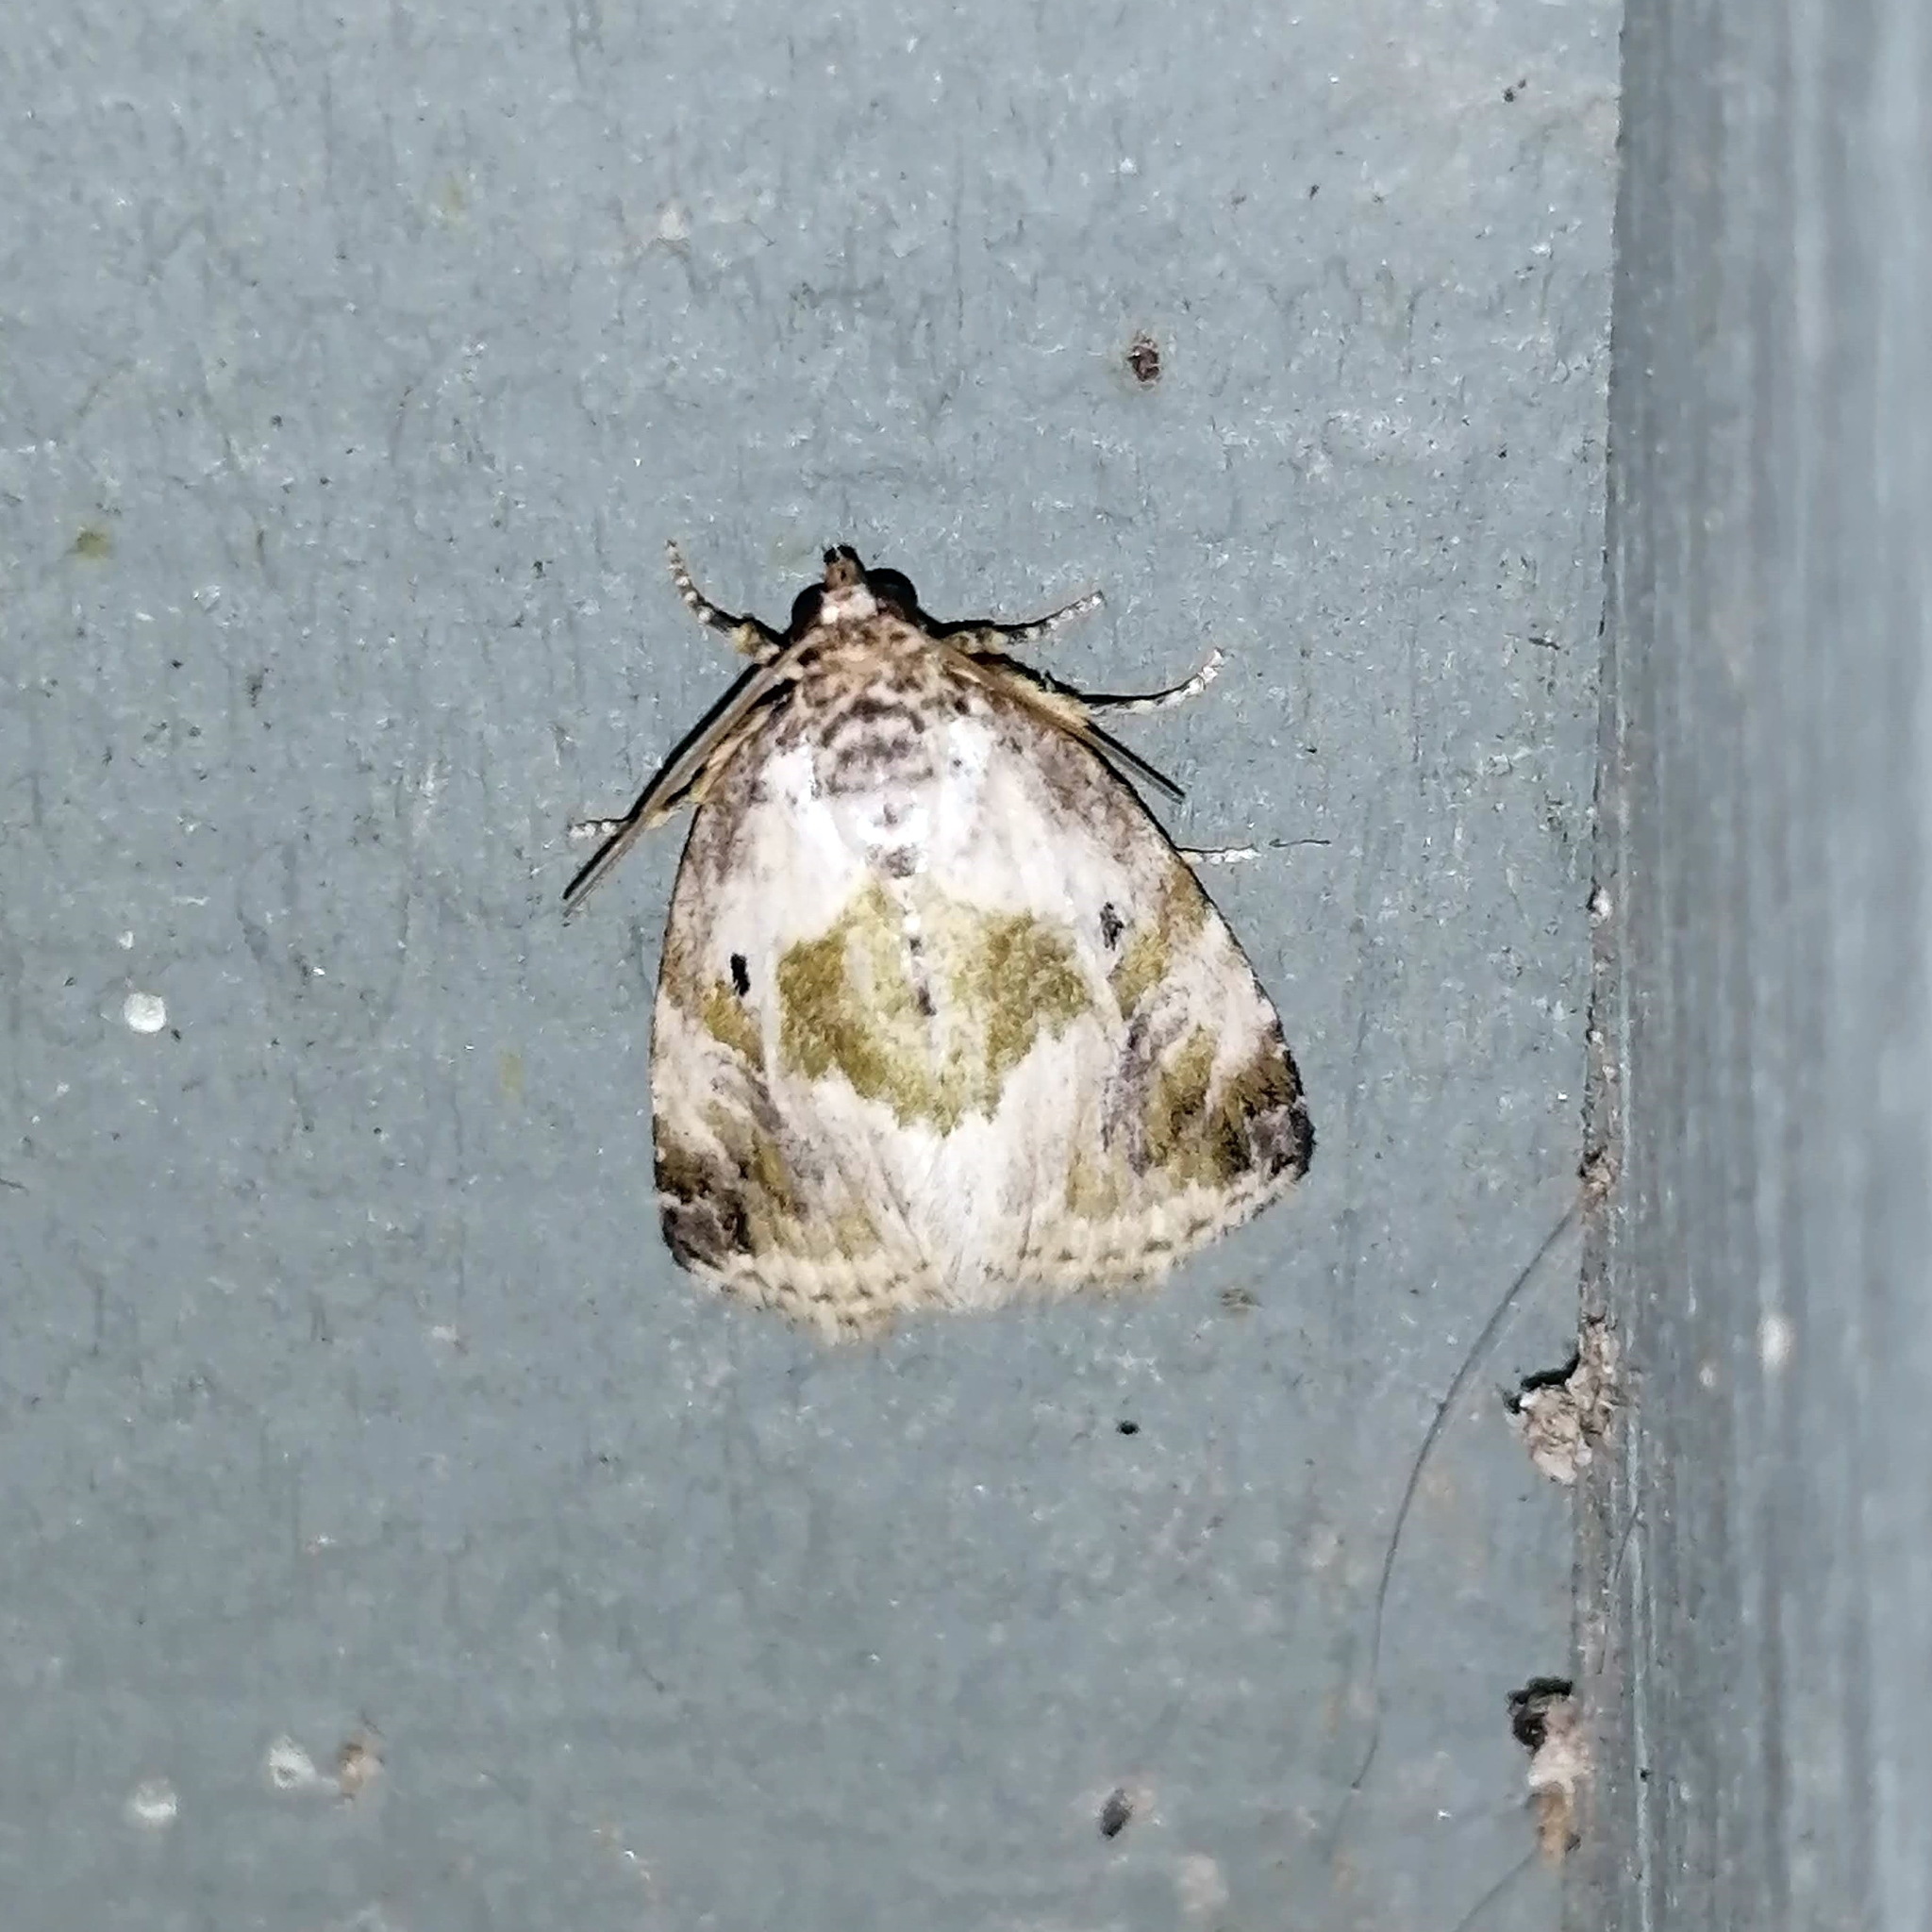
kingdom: Animalia
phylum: Arthropoda
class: Insecta
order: Lepidoptera
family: Noctuidae
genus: Maliattha
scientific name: Maliattha synochitis
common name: Black-dotted glyph
